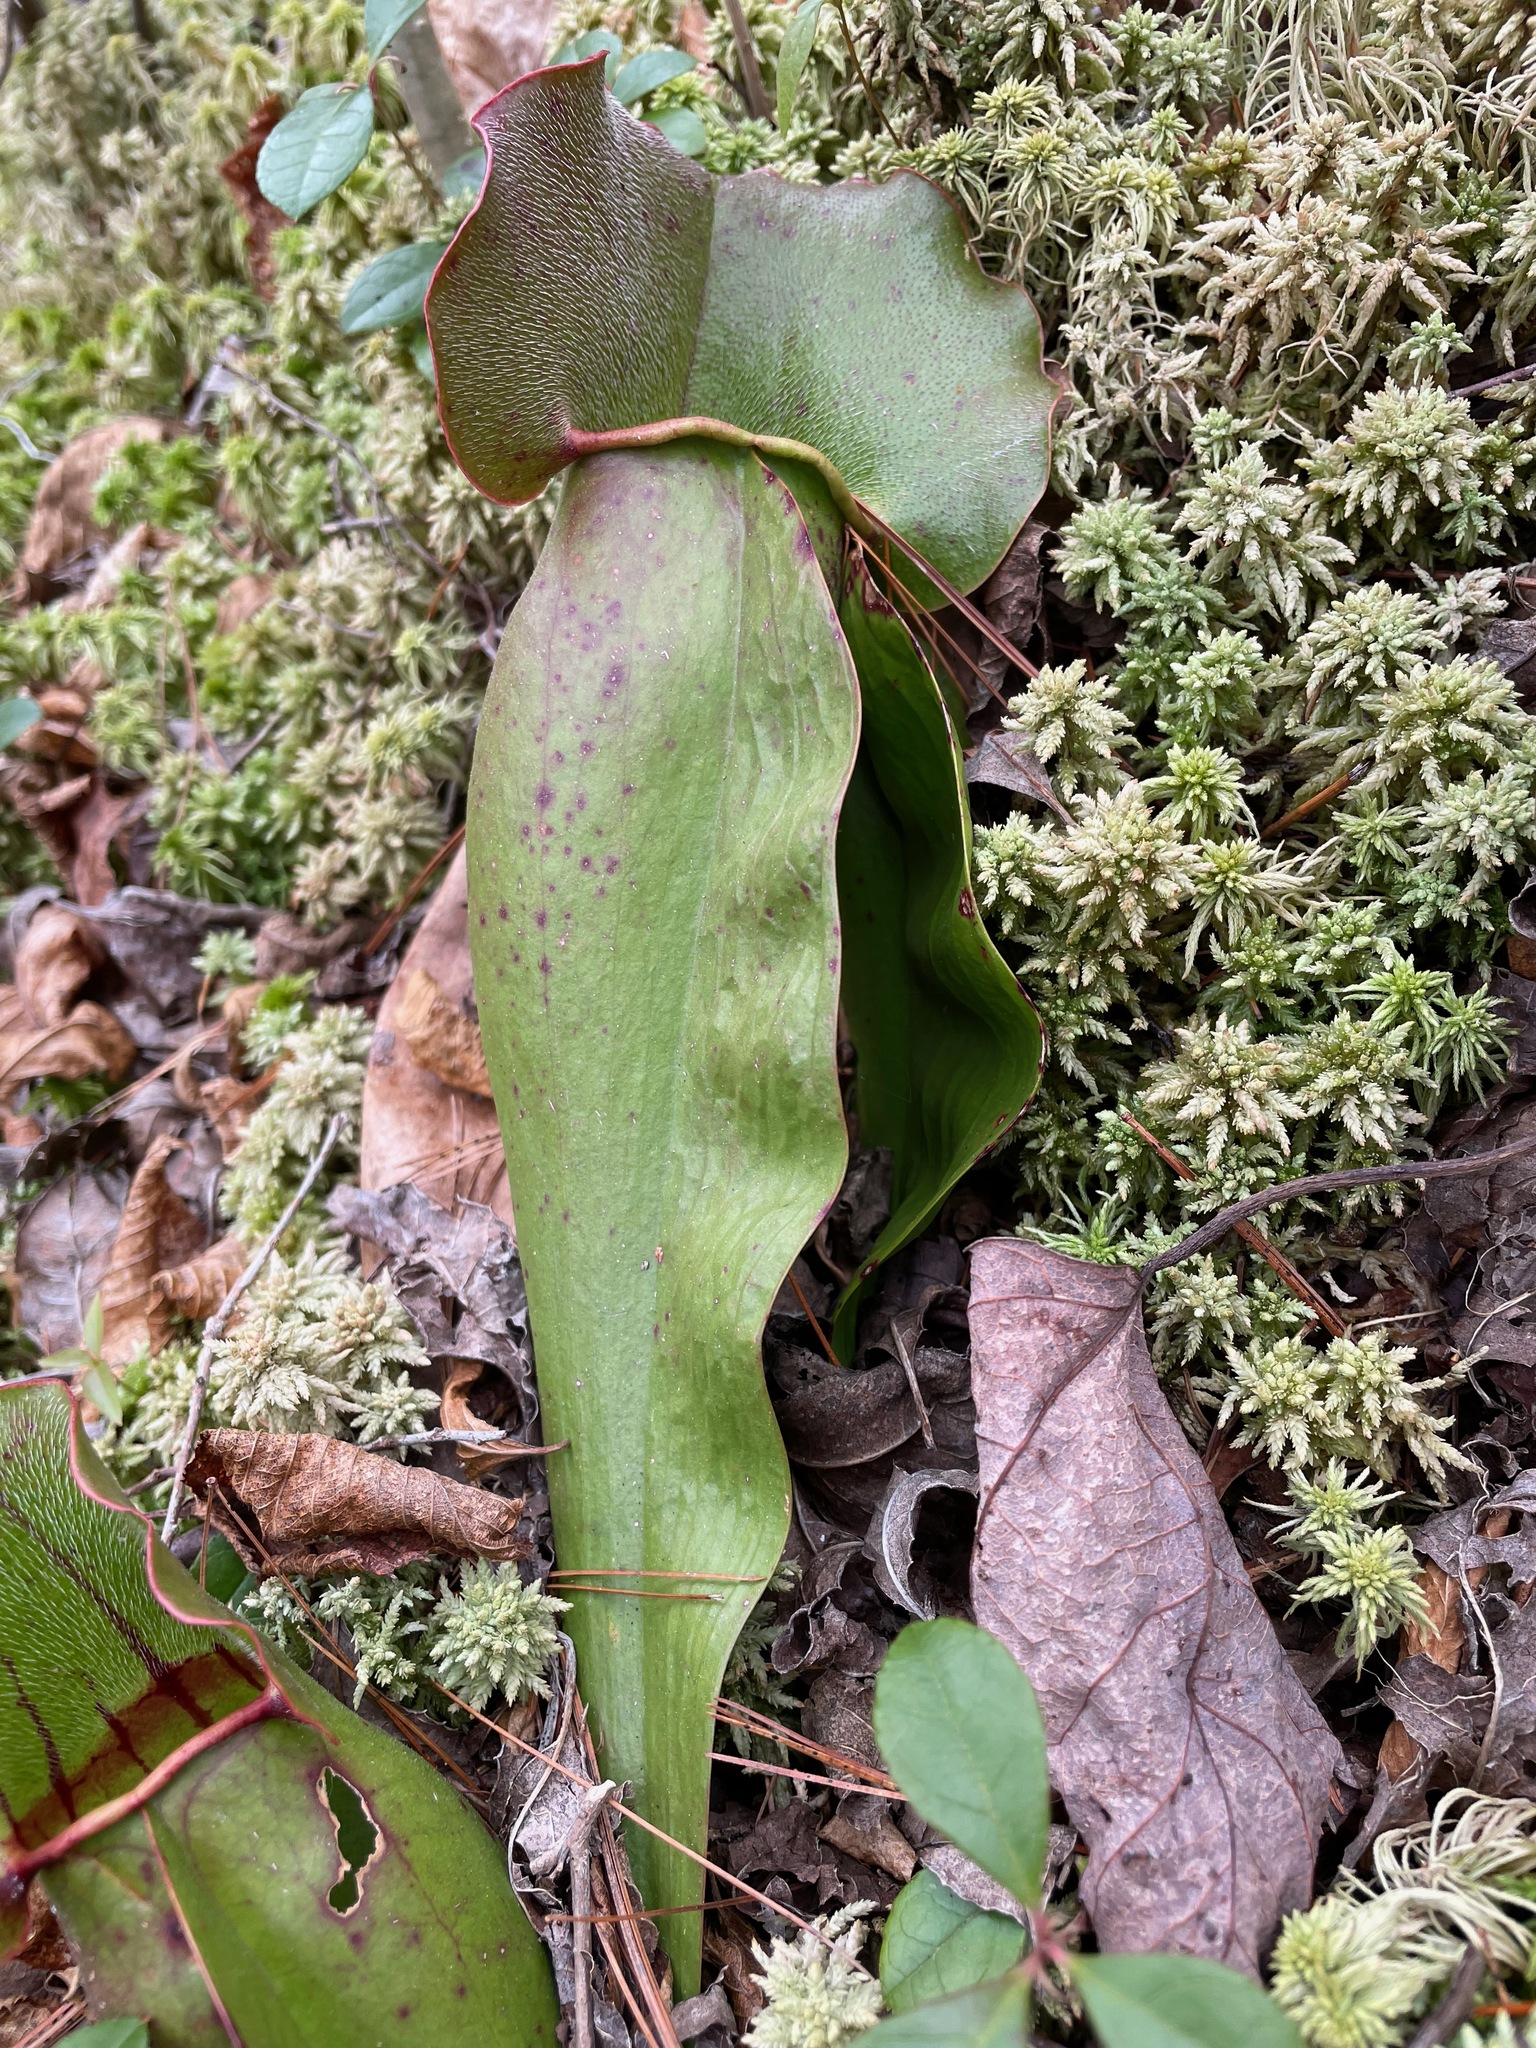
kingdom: Plantae
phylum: Tracheophyta
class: Magnoliopsida
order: Ericales
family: Sarraceniaceae
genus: Sarracenia
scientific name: Sarracenia purpurea
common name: Pitcherplant
